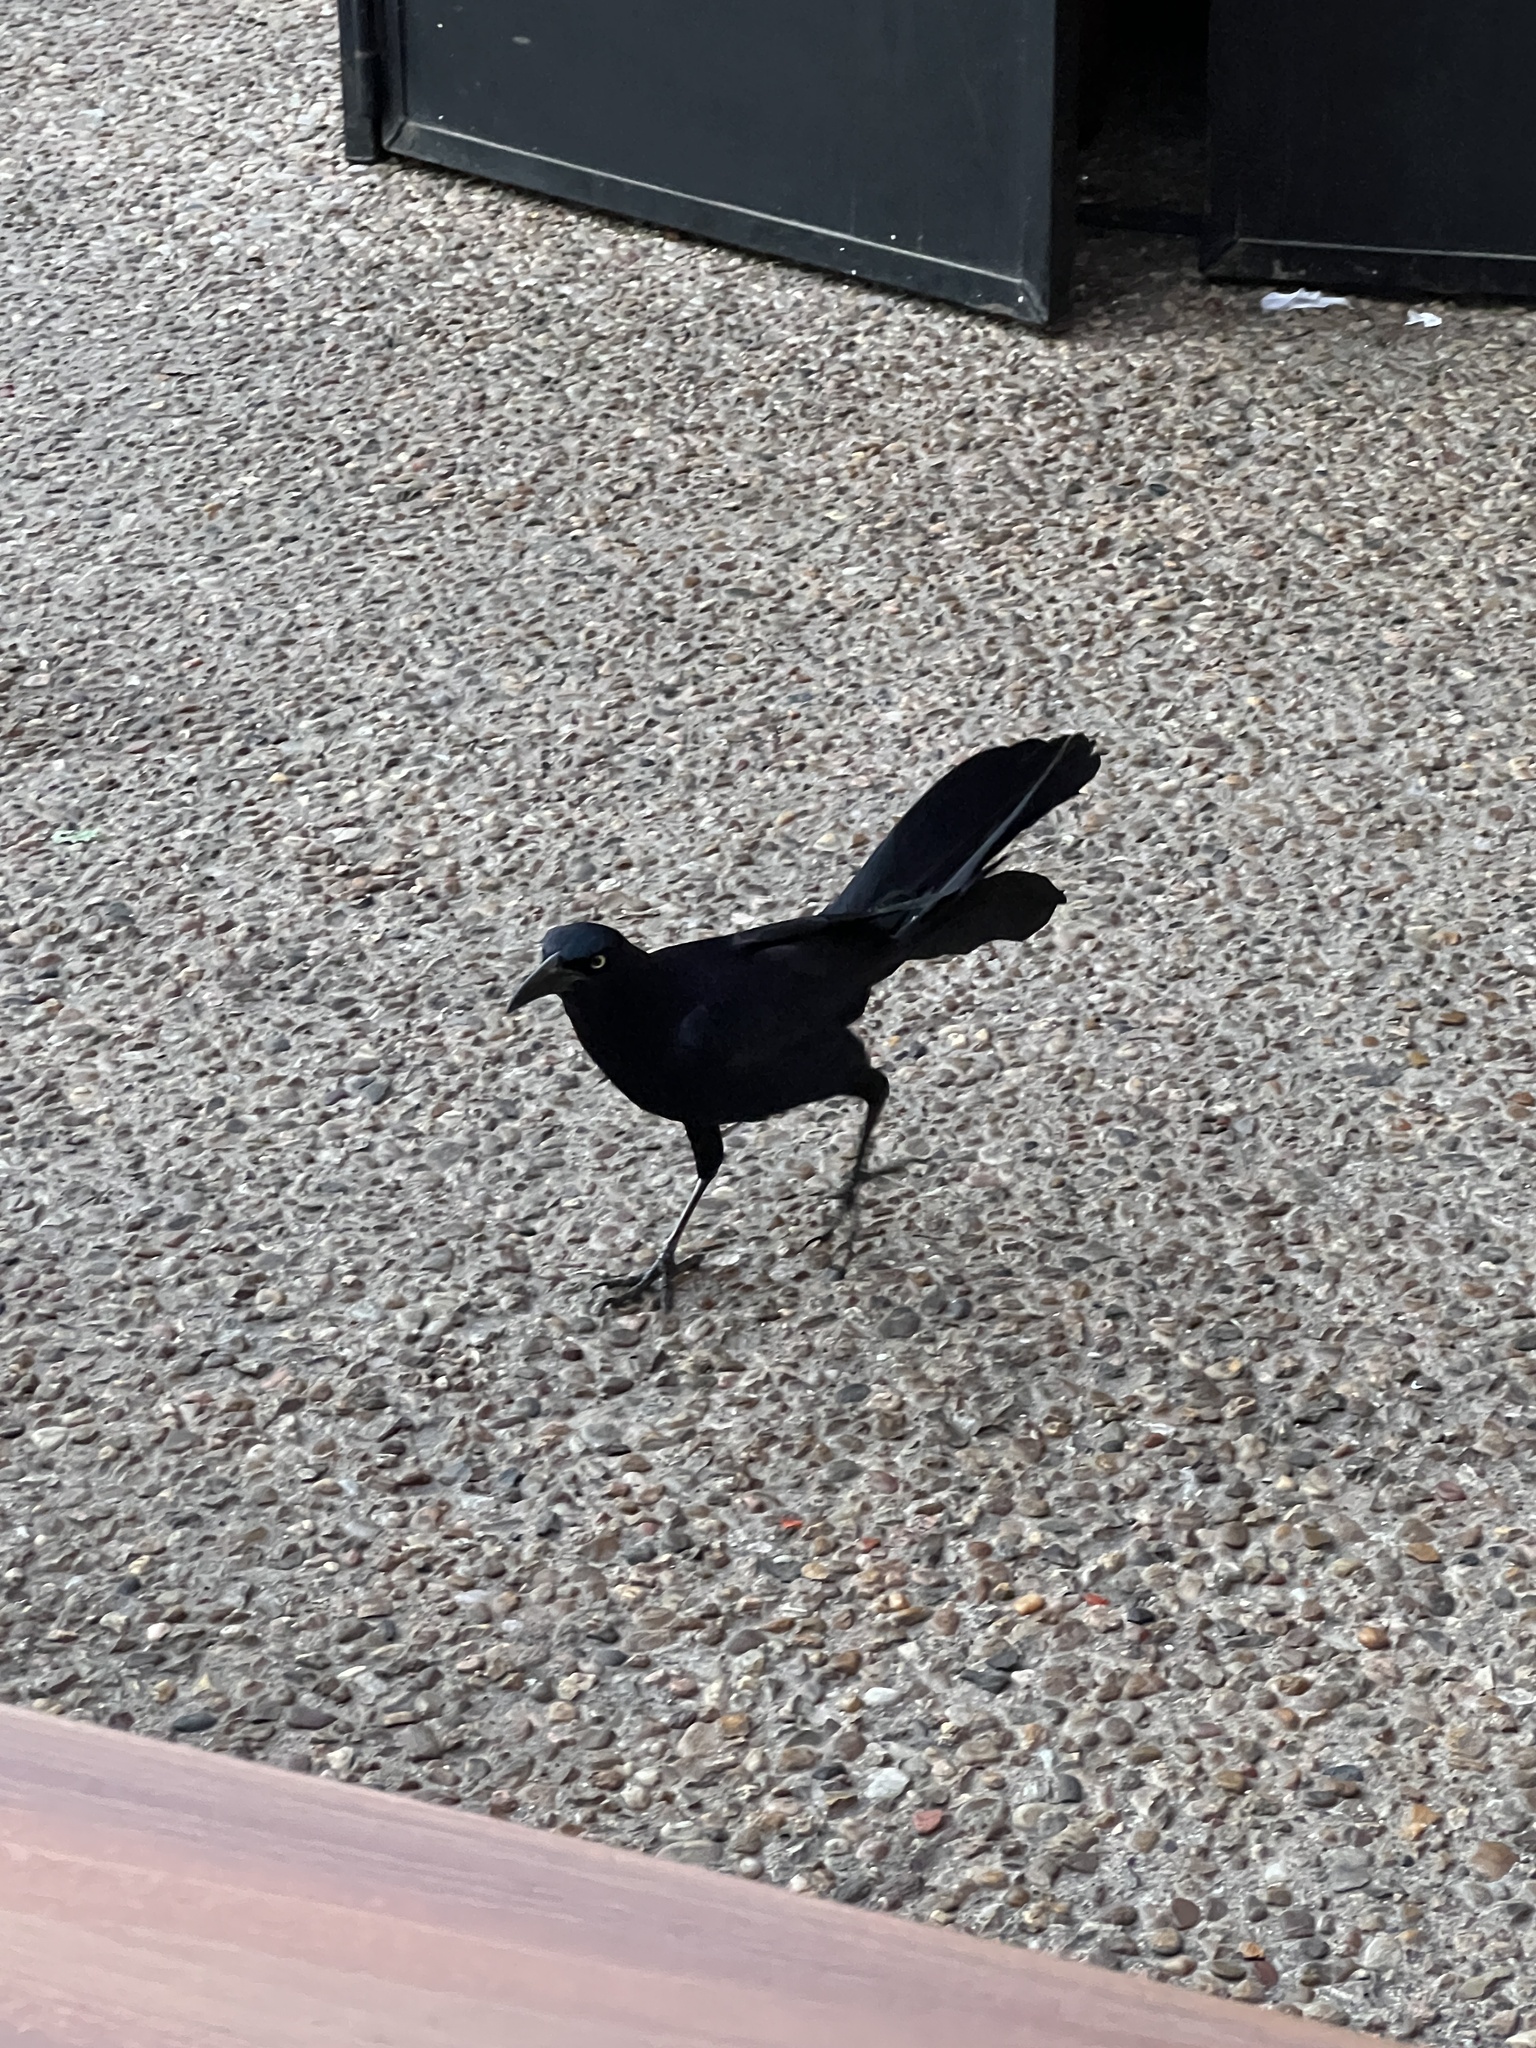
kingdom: Animalia
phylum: Chordata
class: Aves
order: Passeriformes
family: Icteridae
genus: Quiscalus
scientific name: Quiscalus mexicanus
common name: Great-tailed grackle
